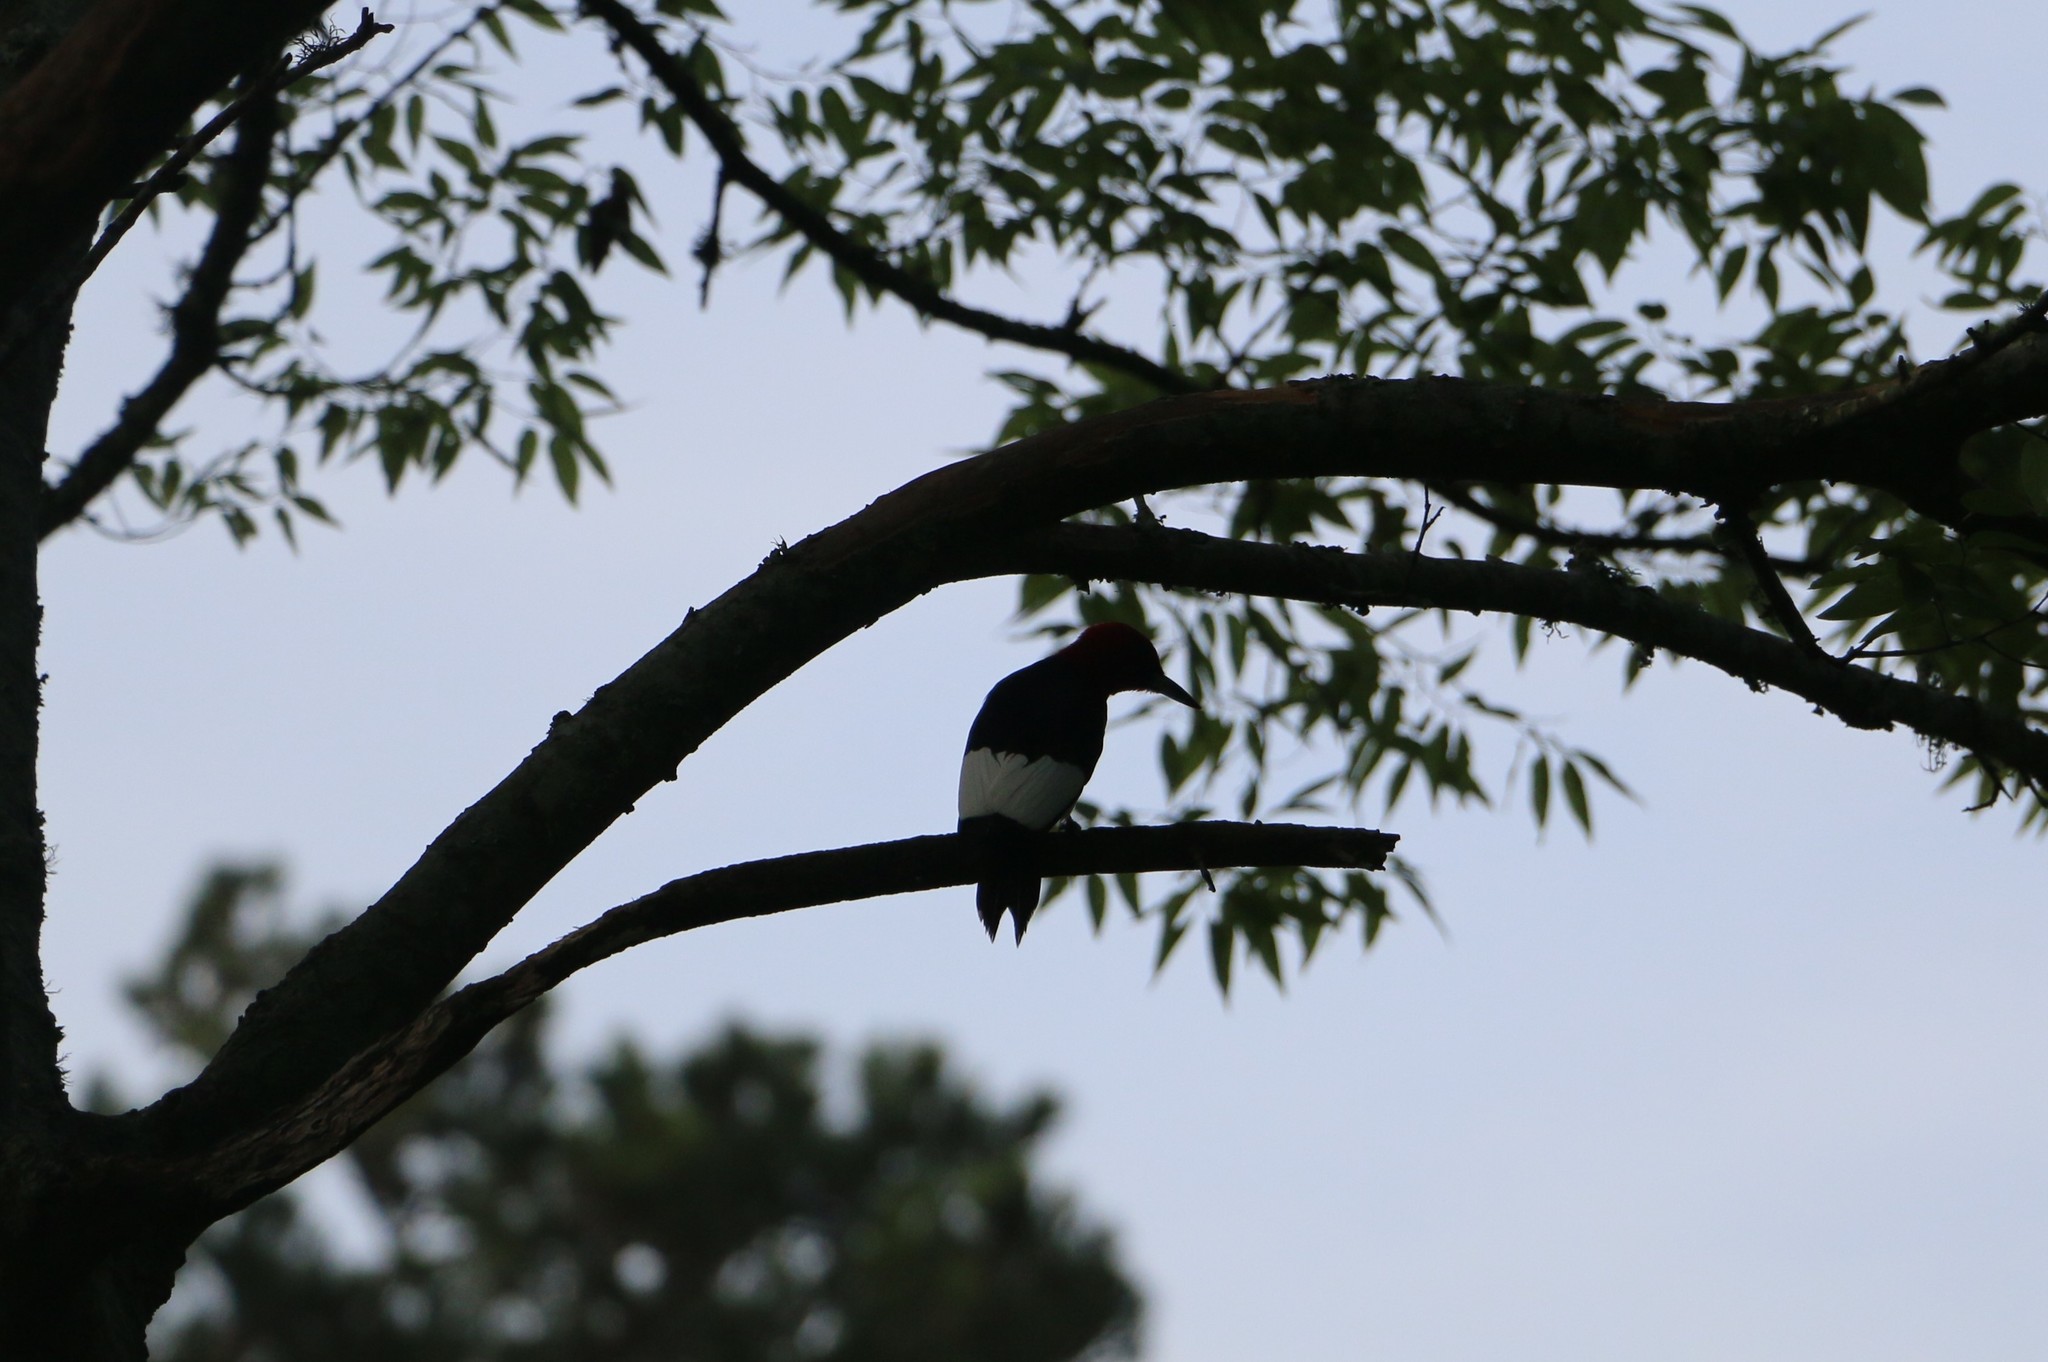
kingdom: Animalia
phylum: Chordata
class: Aves
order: Piciformes
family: Picidae
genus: Melanerpes
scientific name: Melanerpes erythrocephalus
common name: Red-headed woodpecker
